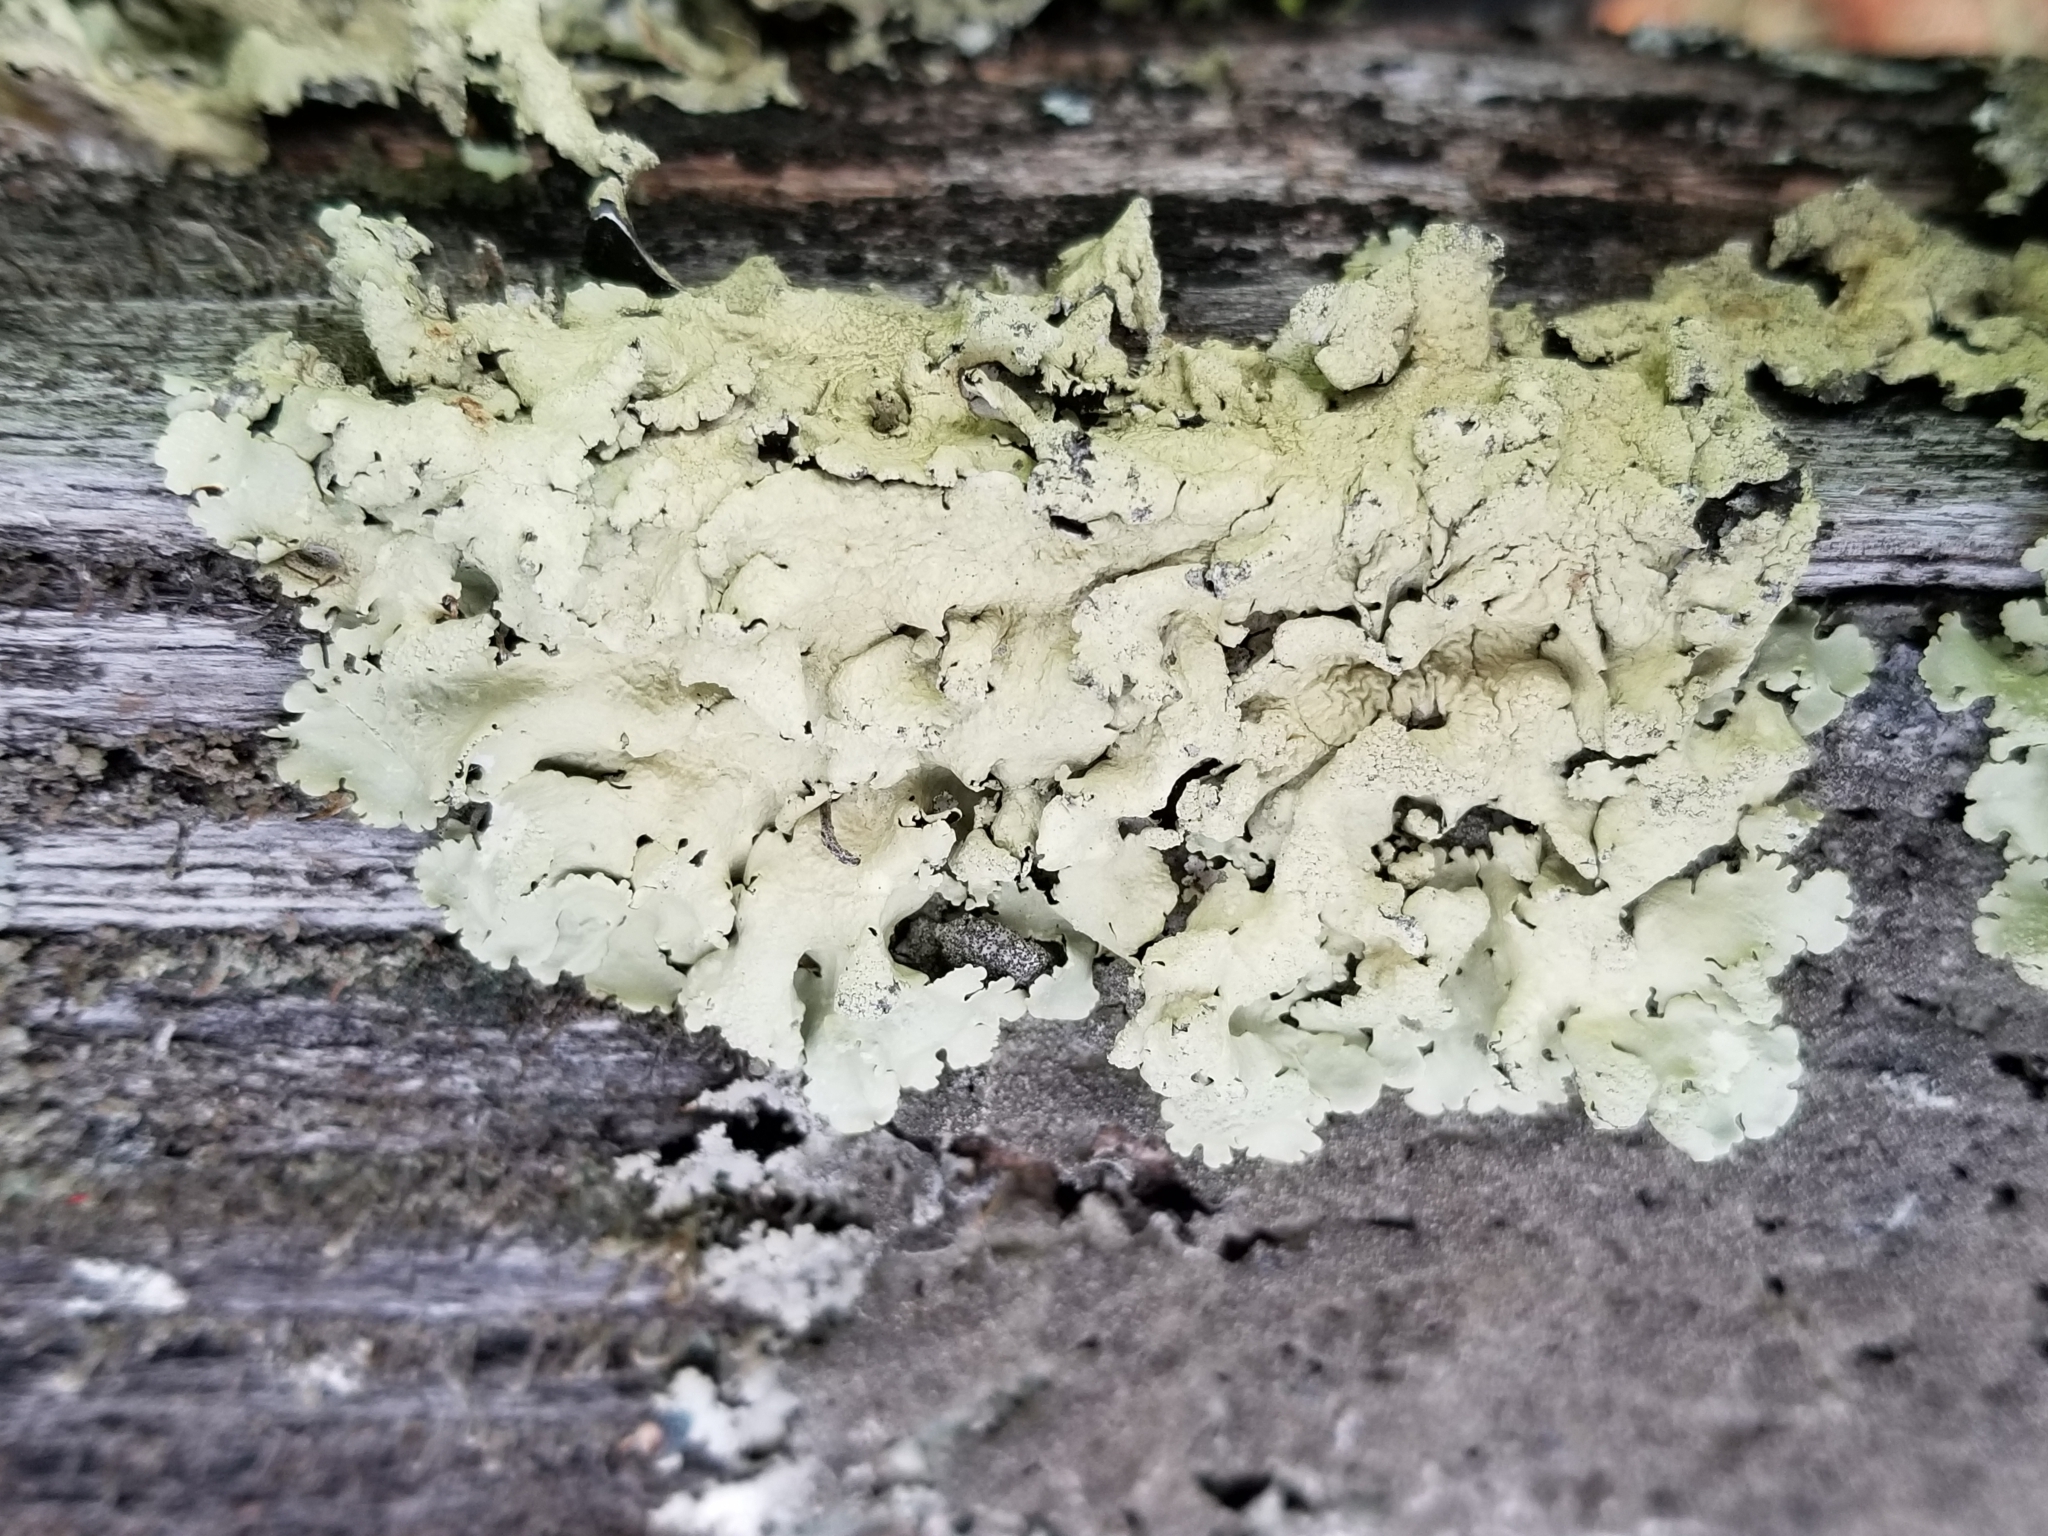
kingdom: Fungi
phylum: Ascomycota
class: Lecanoromycetes
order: Lecanorales
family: Parmeliaceae
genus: Flavoparmelia
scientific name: Flavoparmelia caperata
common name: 40-mile per hour lichen
